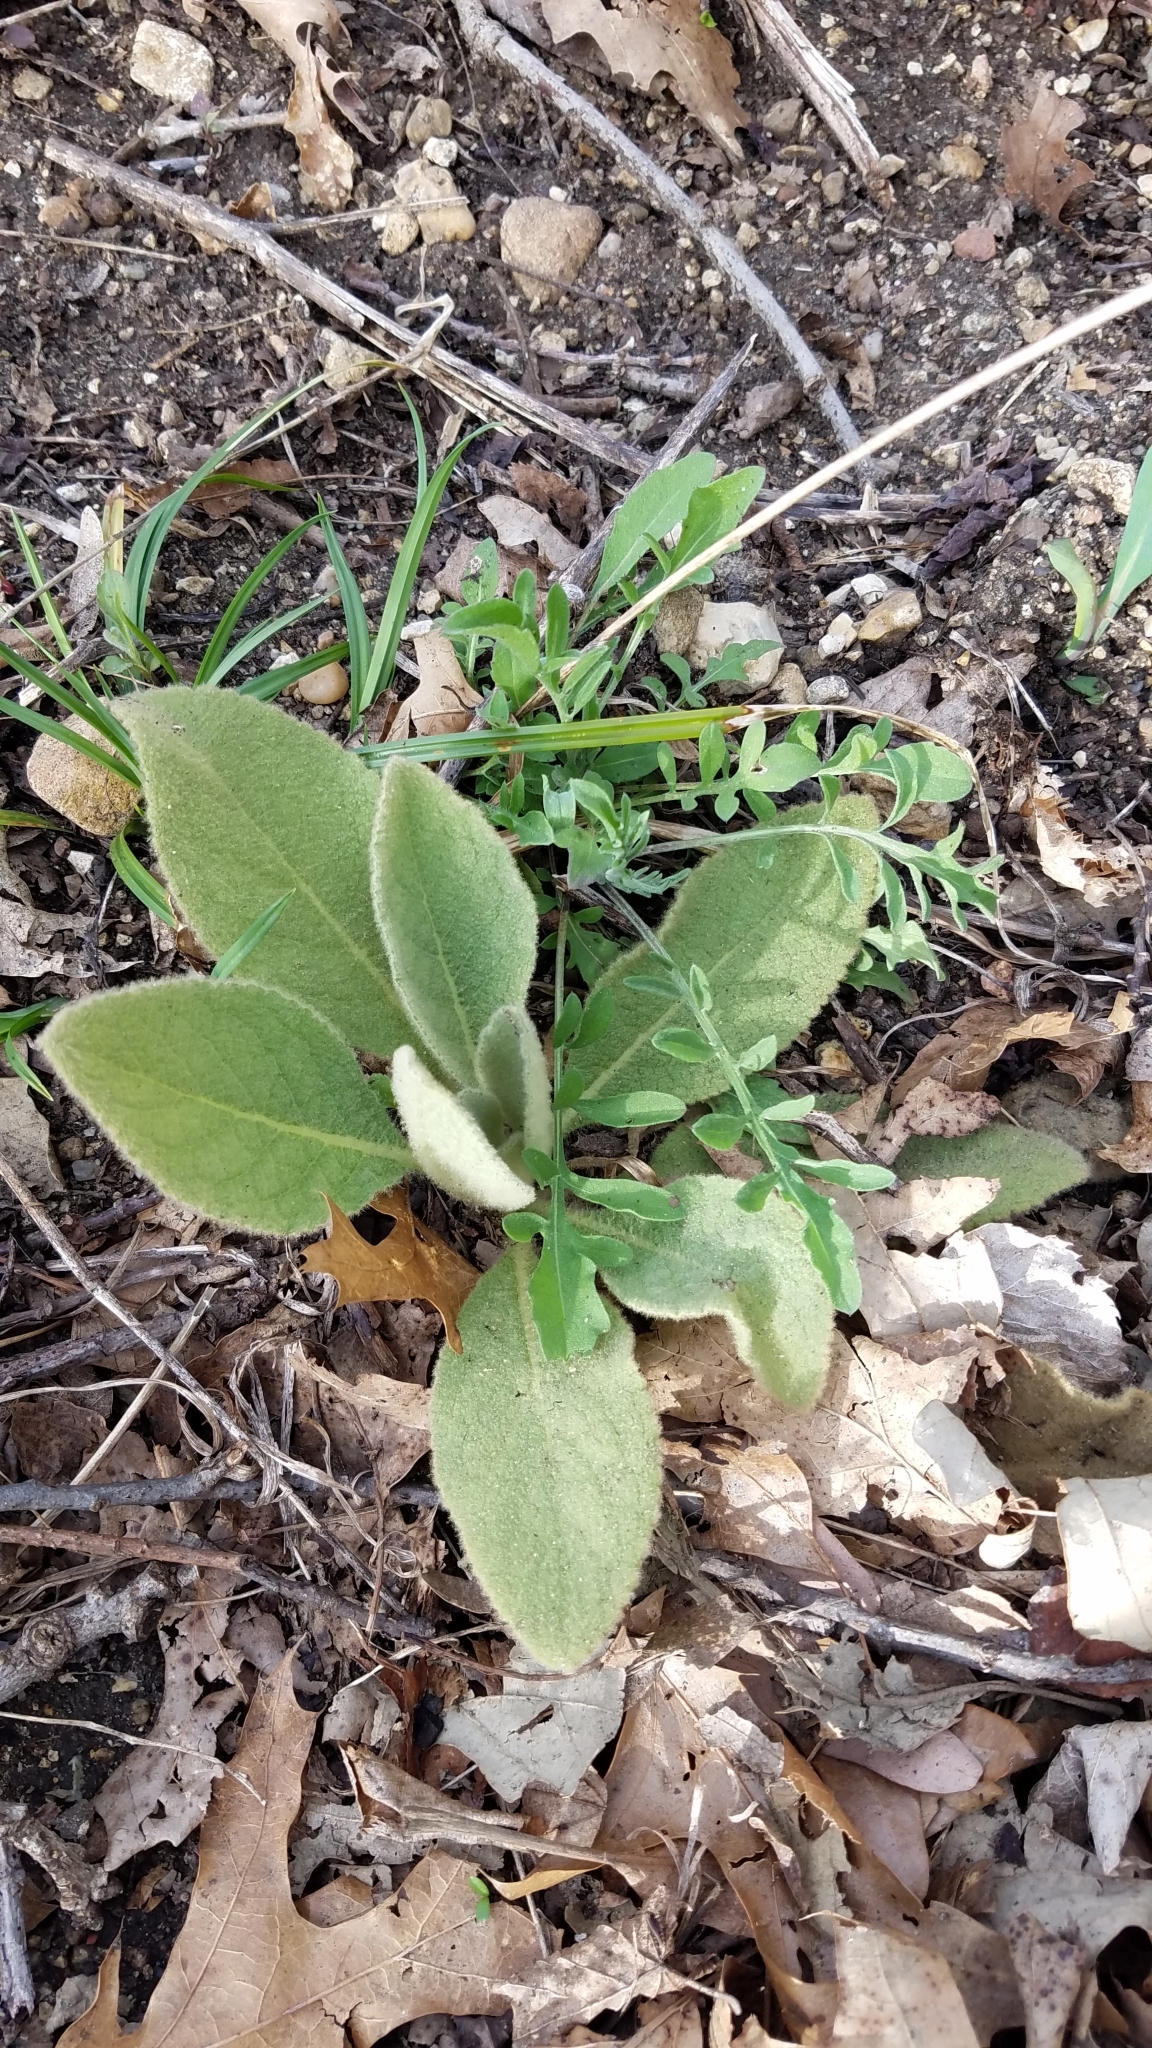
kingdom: Plantae
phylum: Tracheophyta
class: Magnoliopsida
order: Lamiales
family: Scrophulariaceae
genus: Verbascum
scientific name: Verbascum thapsus
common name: Common mullein
